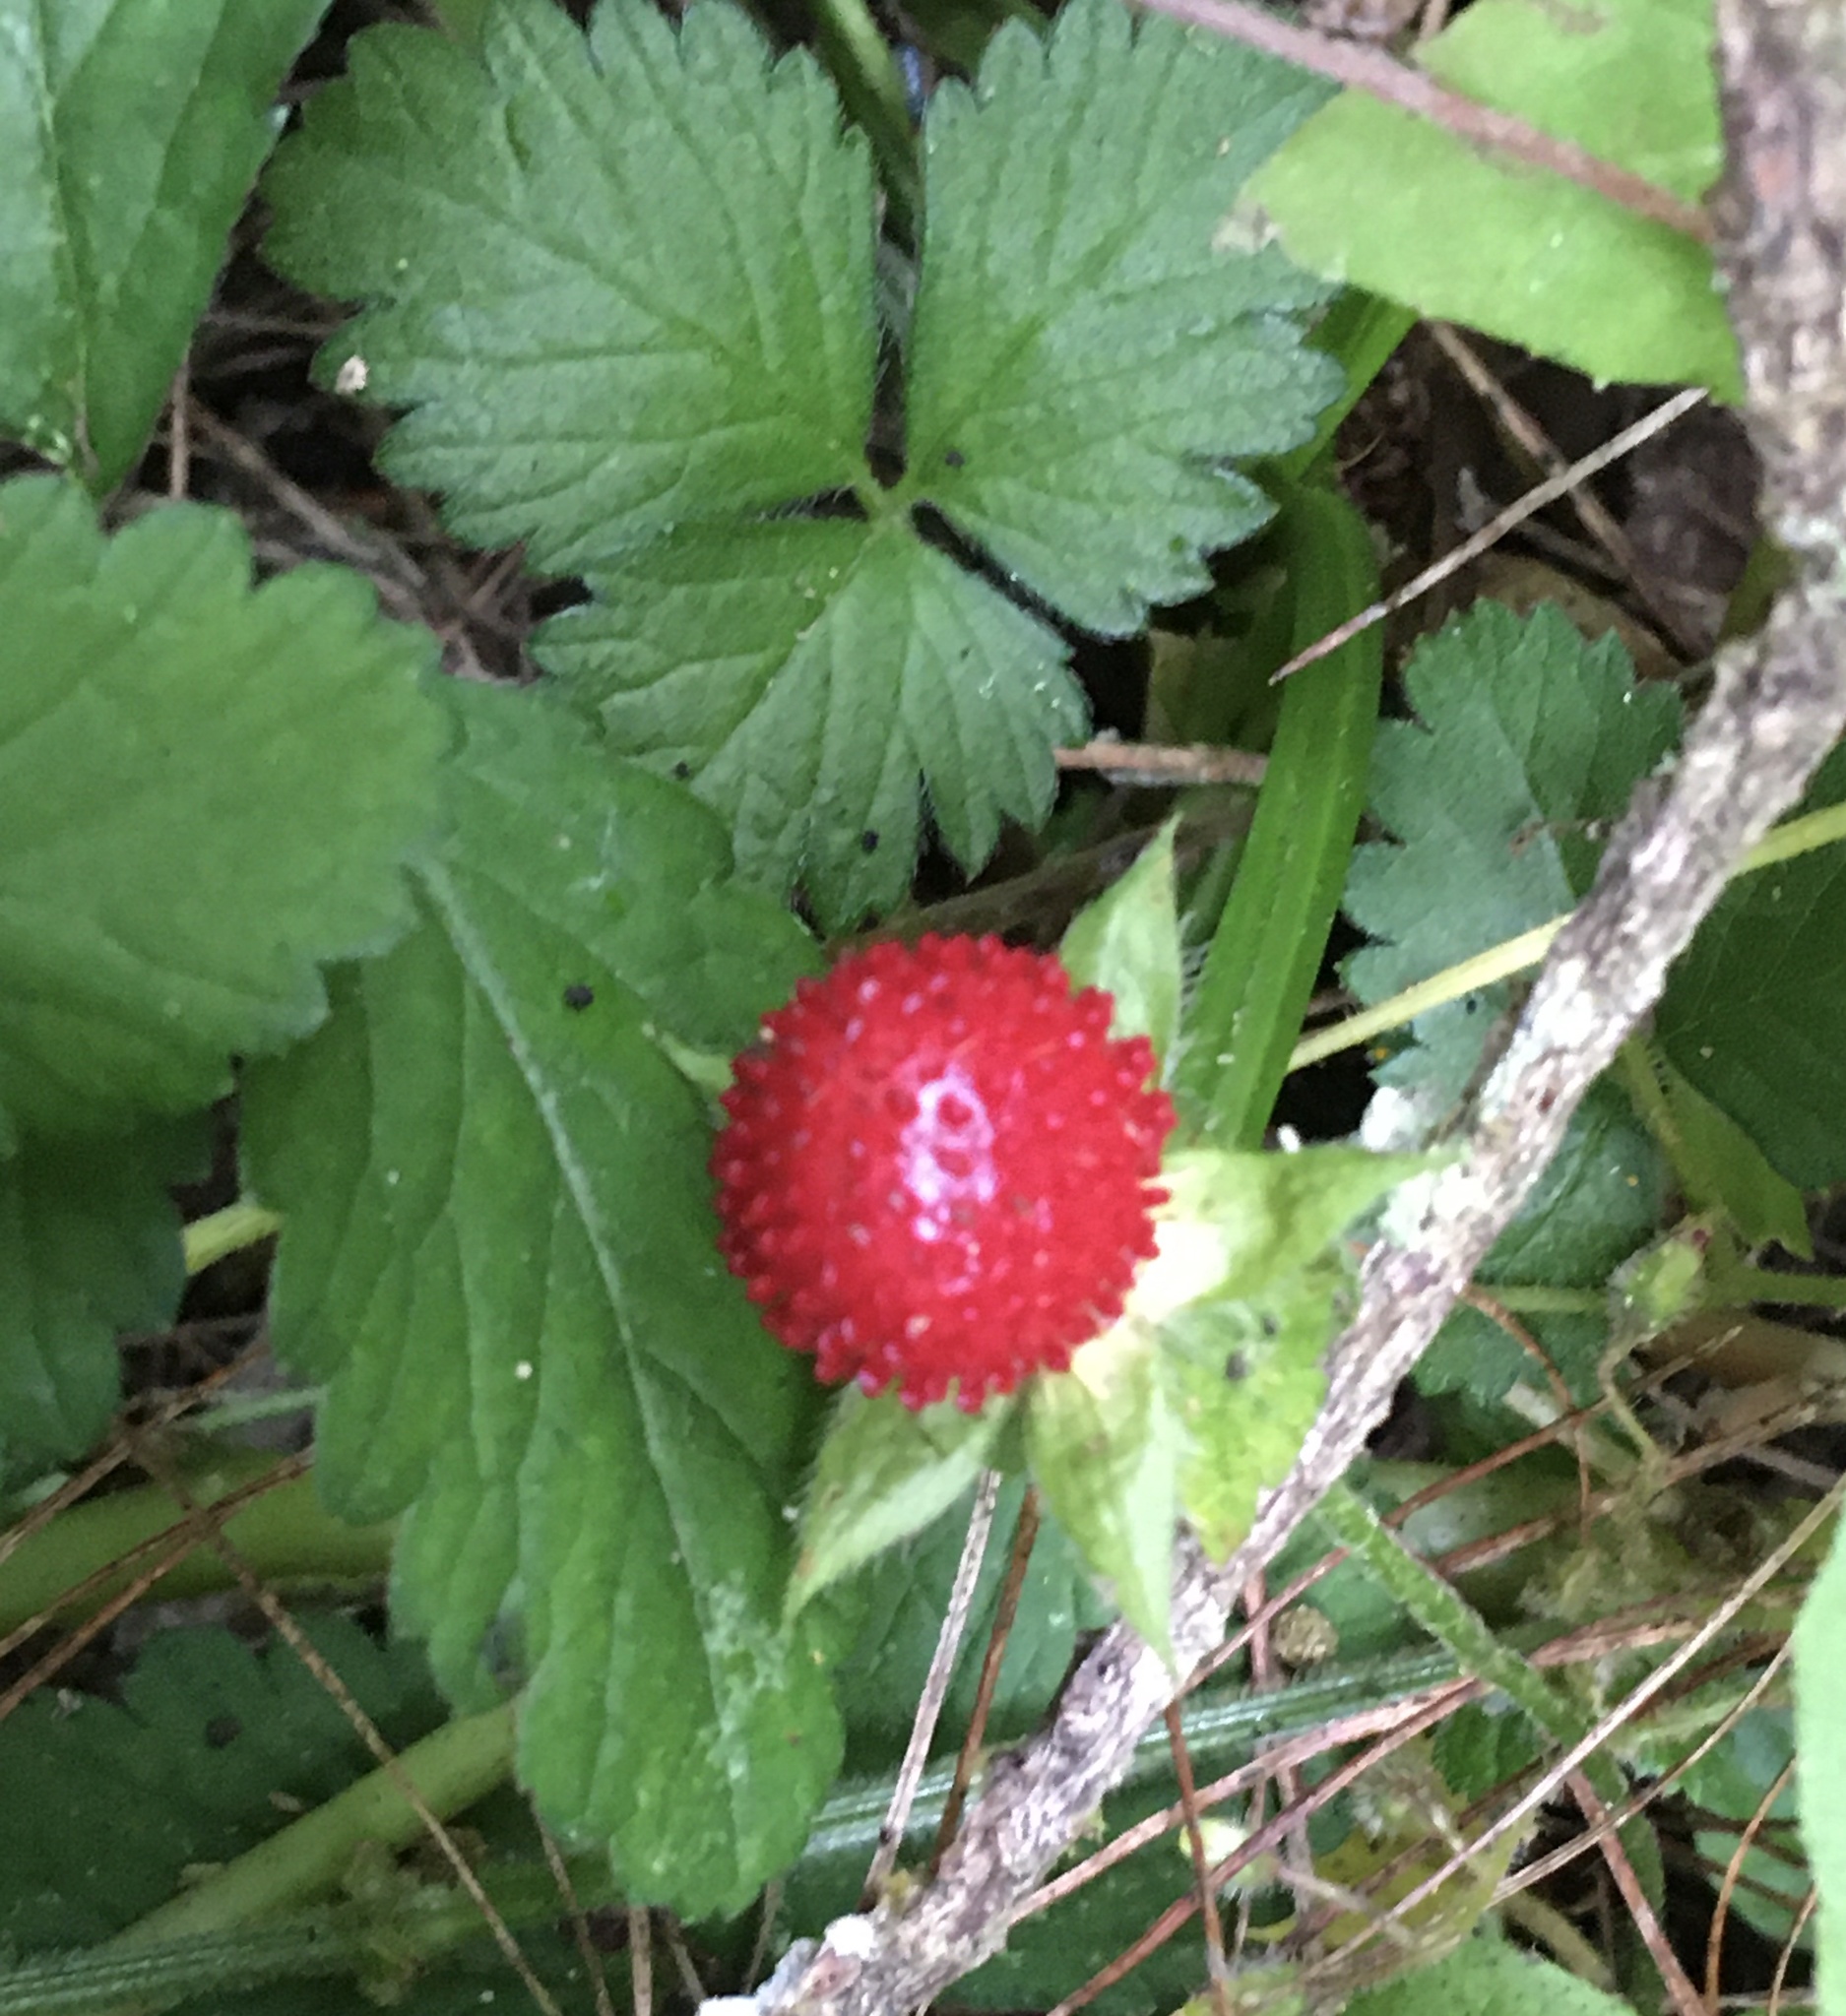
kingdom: Plantae
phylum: Tracheophyta
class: Magnoliopsida
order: Rosales
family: Rosaceae
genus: Potentilla
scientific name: Potentilla indica
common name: Yellow-flowered strawberry
